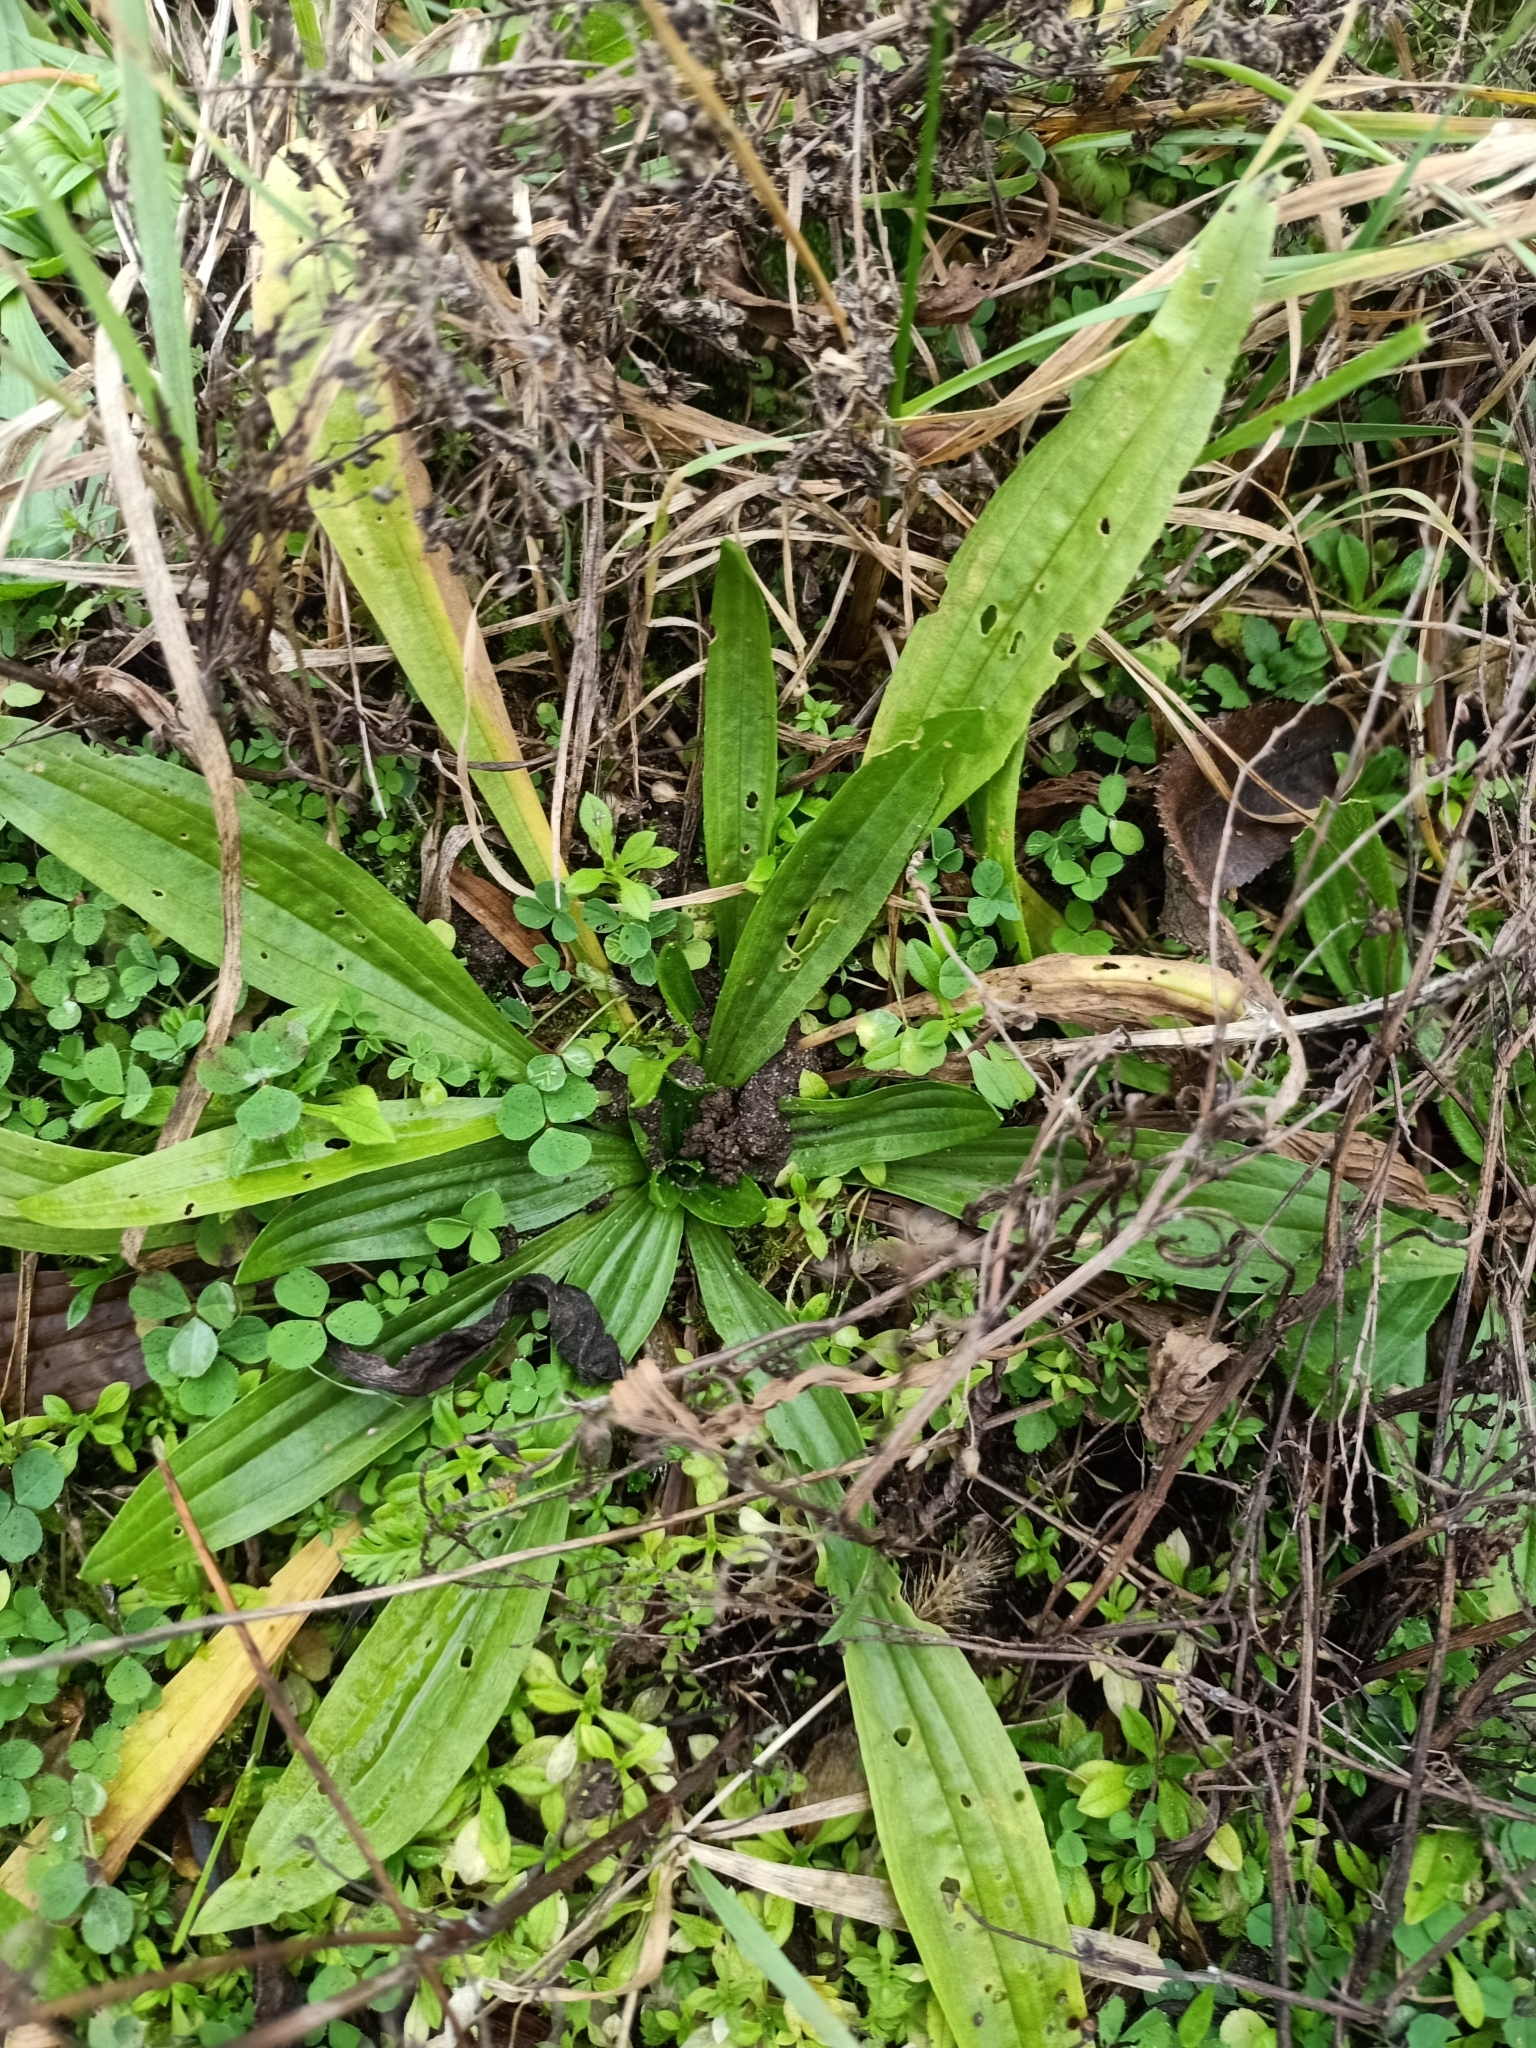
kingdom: Plantae
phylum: Tracheophyta
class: Magnoliopsida
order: Lamiales
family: Plantaginaceae
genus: Plantago
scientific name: Plantago lanceolata
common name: Ribwort plantain
